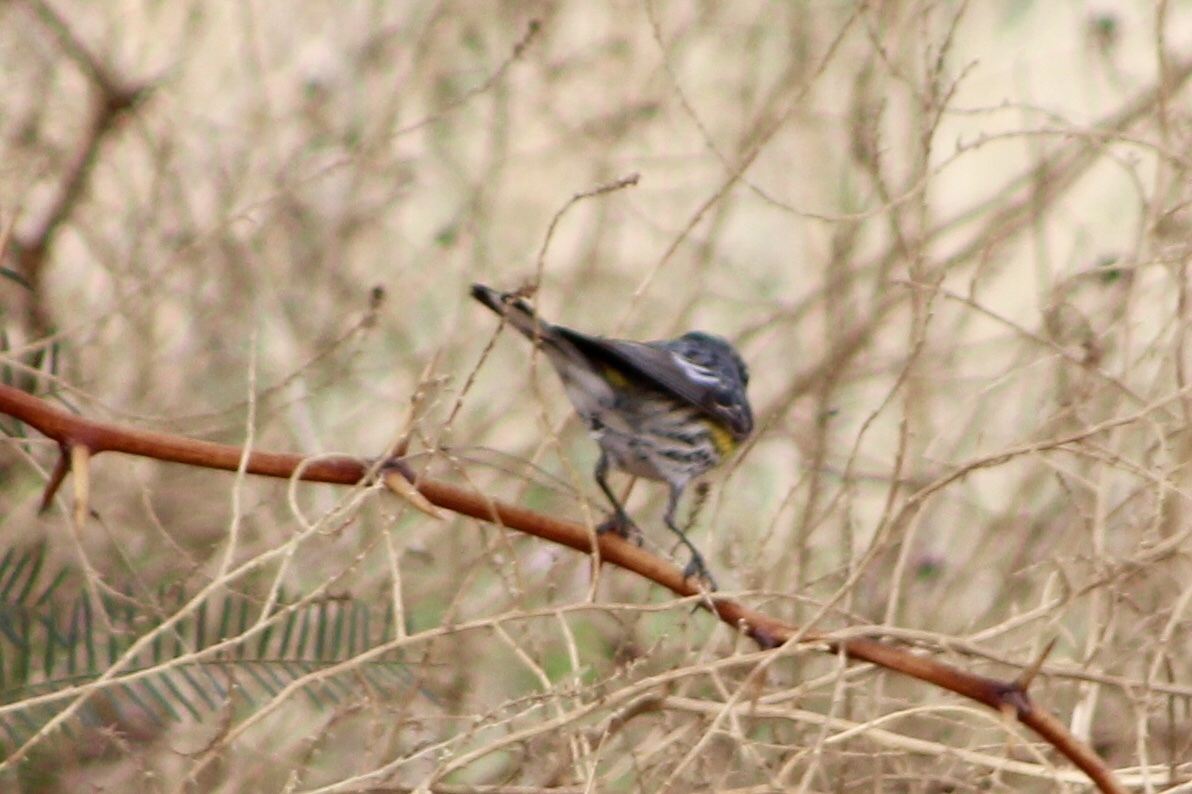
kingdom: Animalia
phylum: Chordata
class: Aves
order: Passeriformes
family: Parulidae
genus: Setophaga
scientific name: Setophaga auduboni
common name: Audubon's warbler
